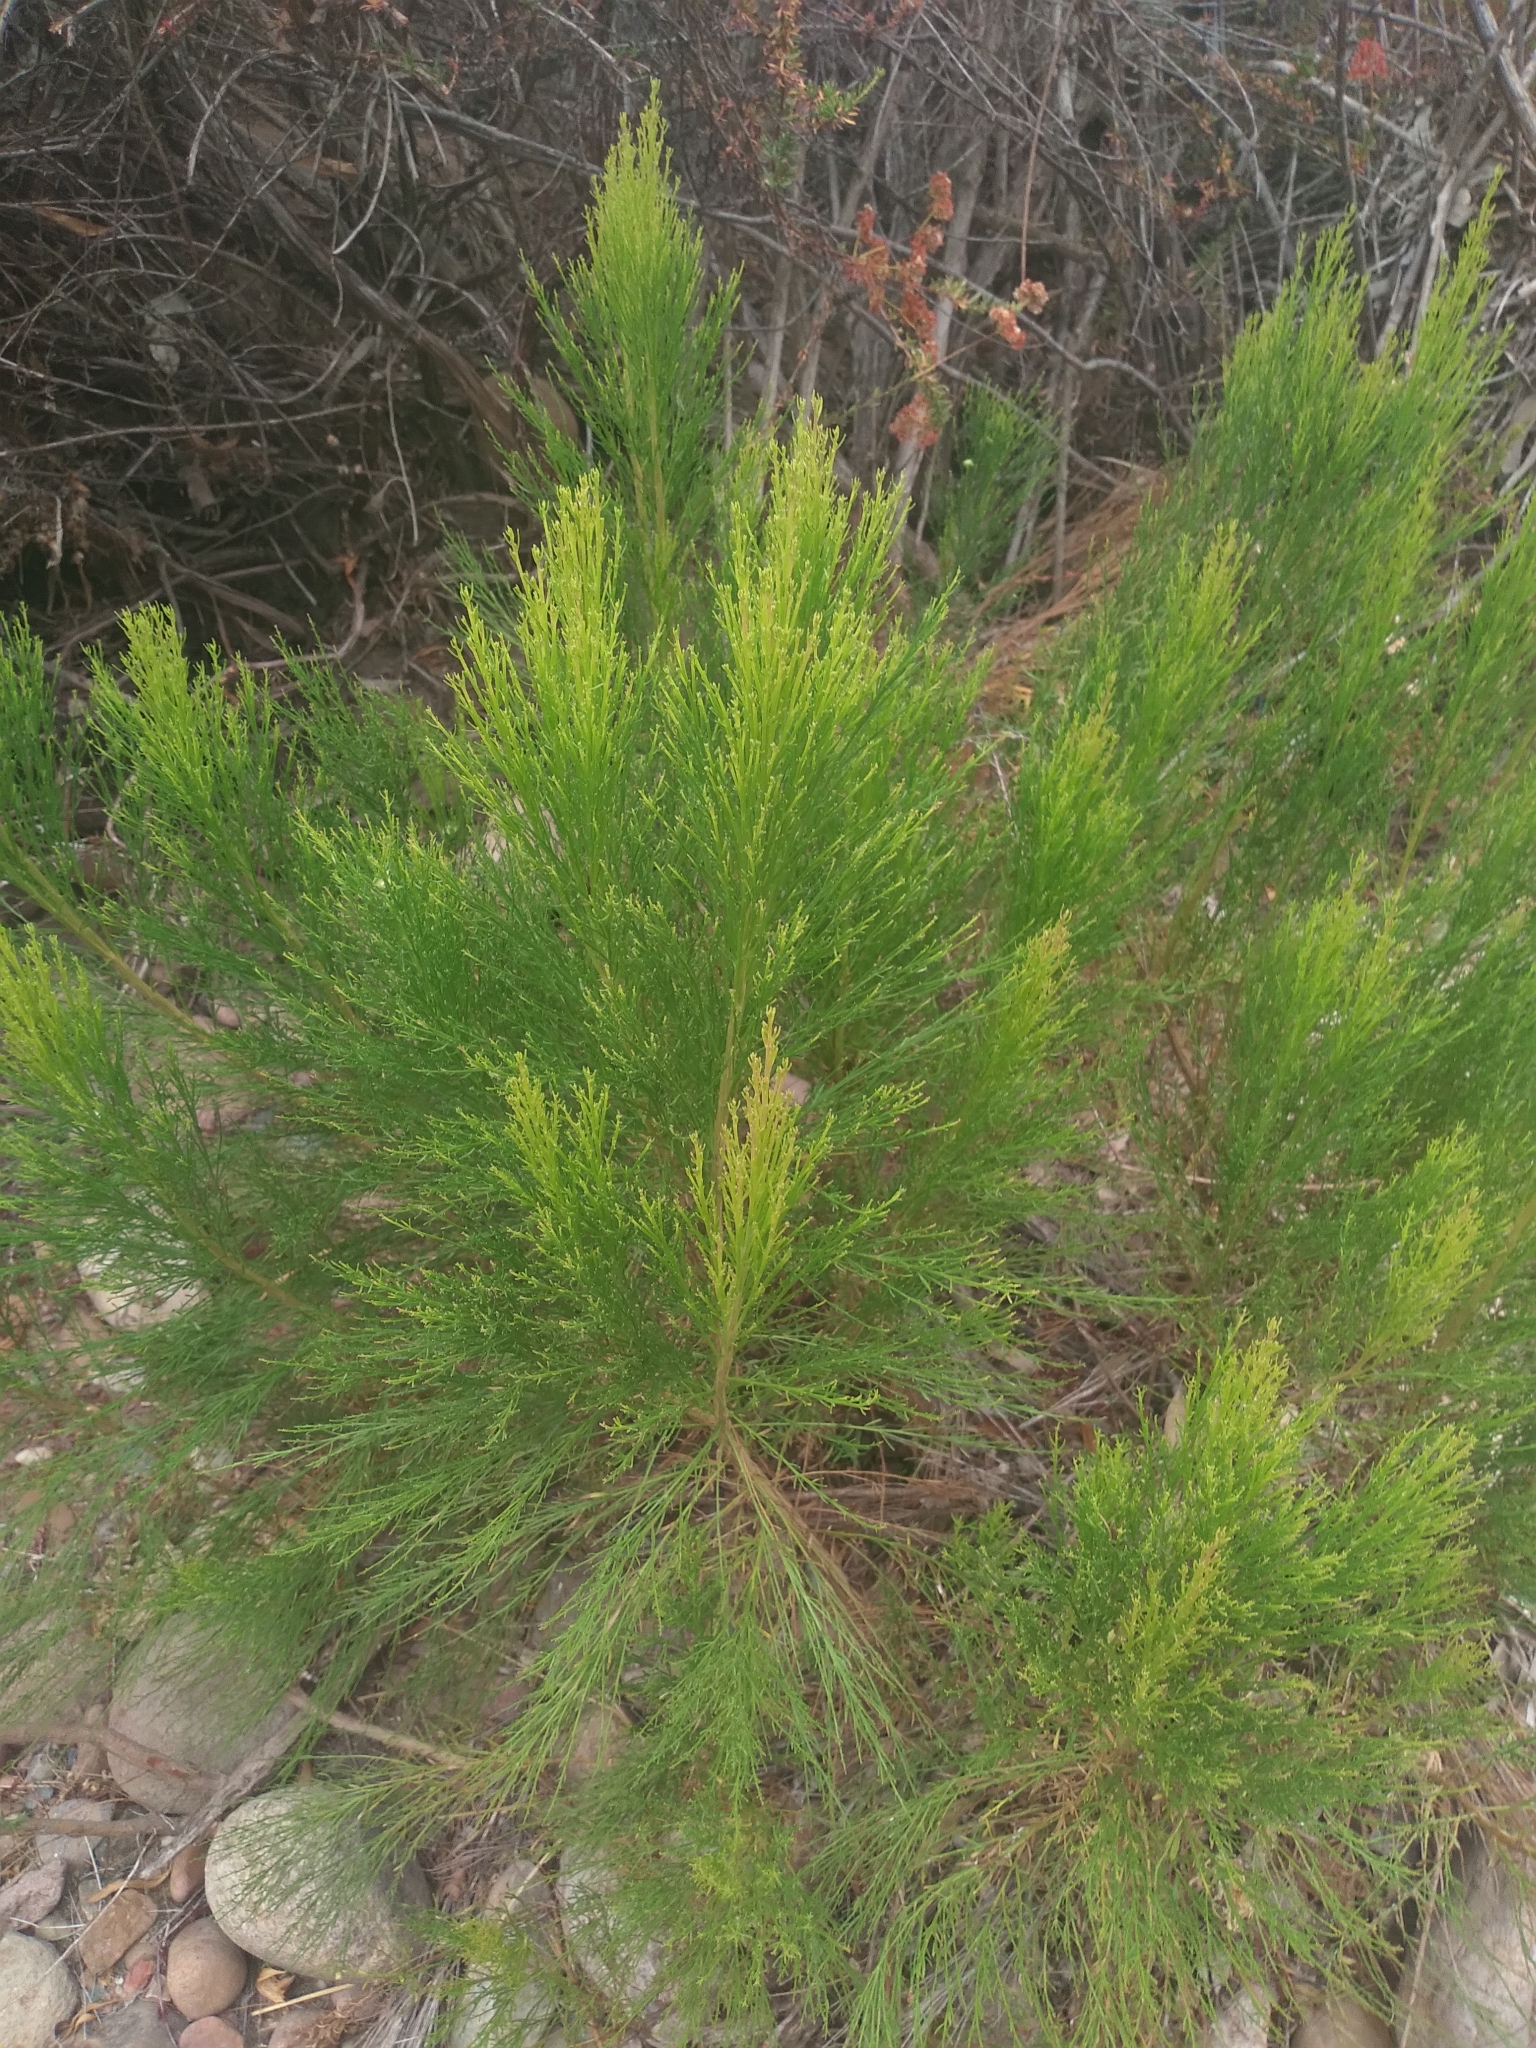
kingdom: Plantae
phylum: Tracheophyta
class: Magnoliopsida
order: Asterales
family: Asteraceae
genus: Baccharis
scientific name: Baccharis sarothroides
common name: Desert-broom
